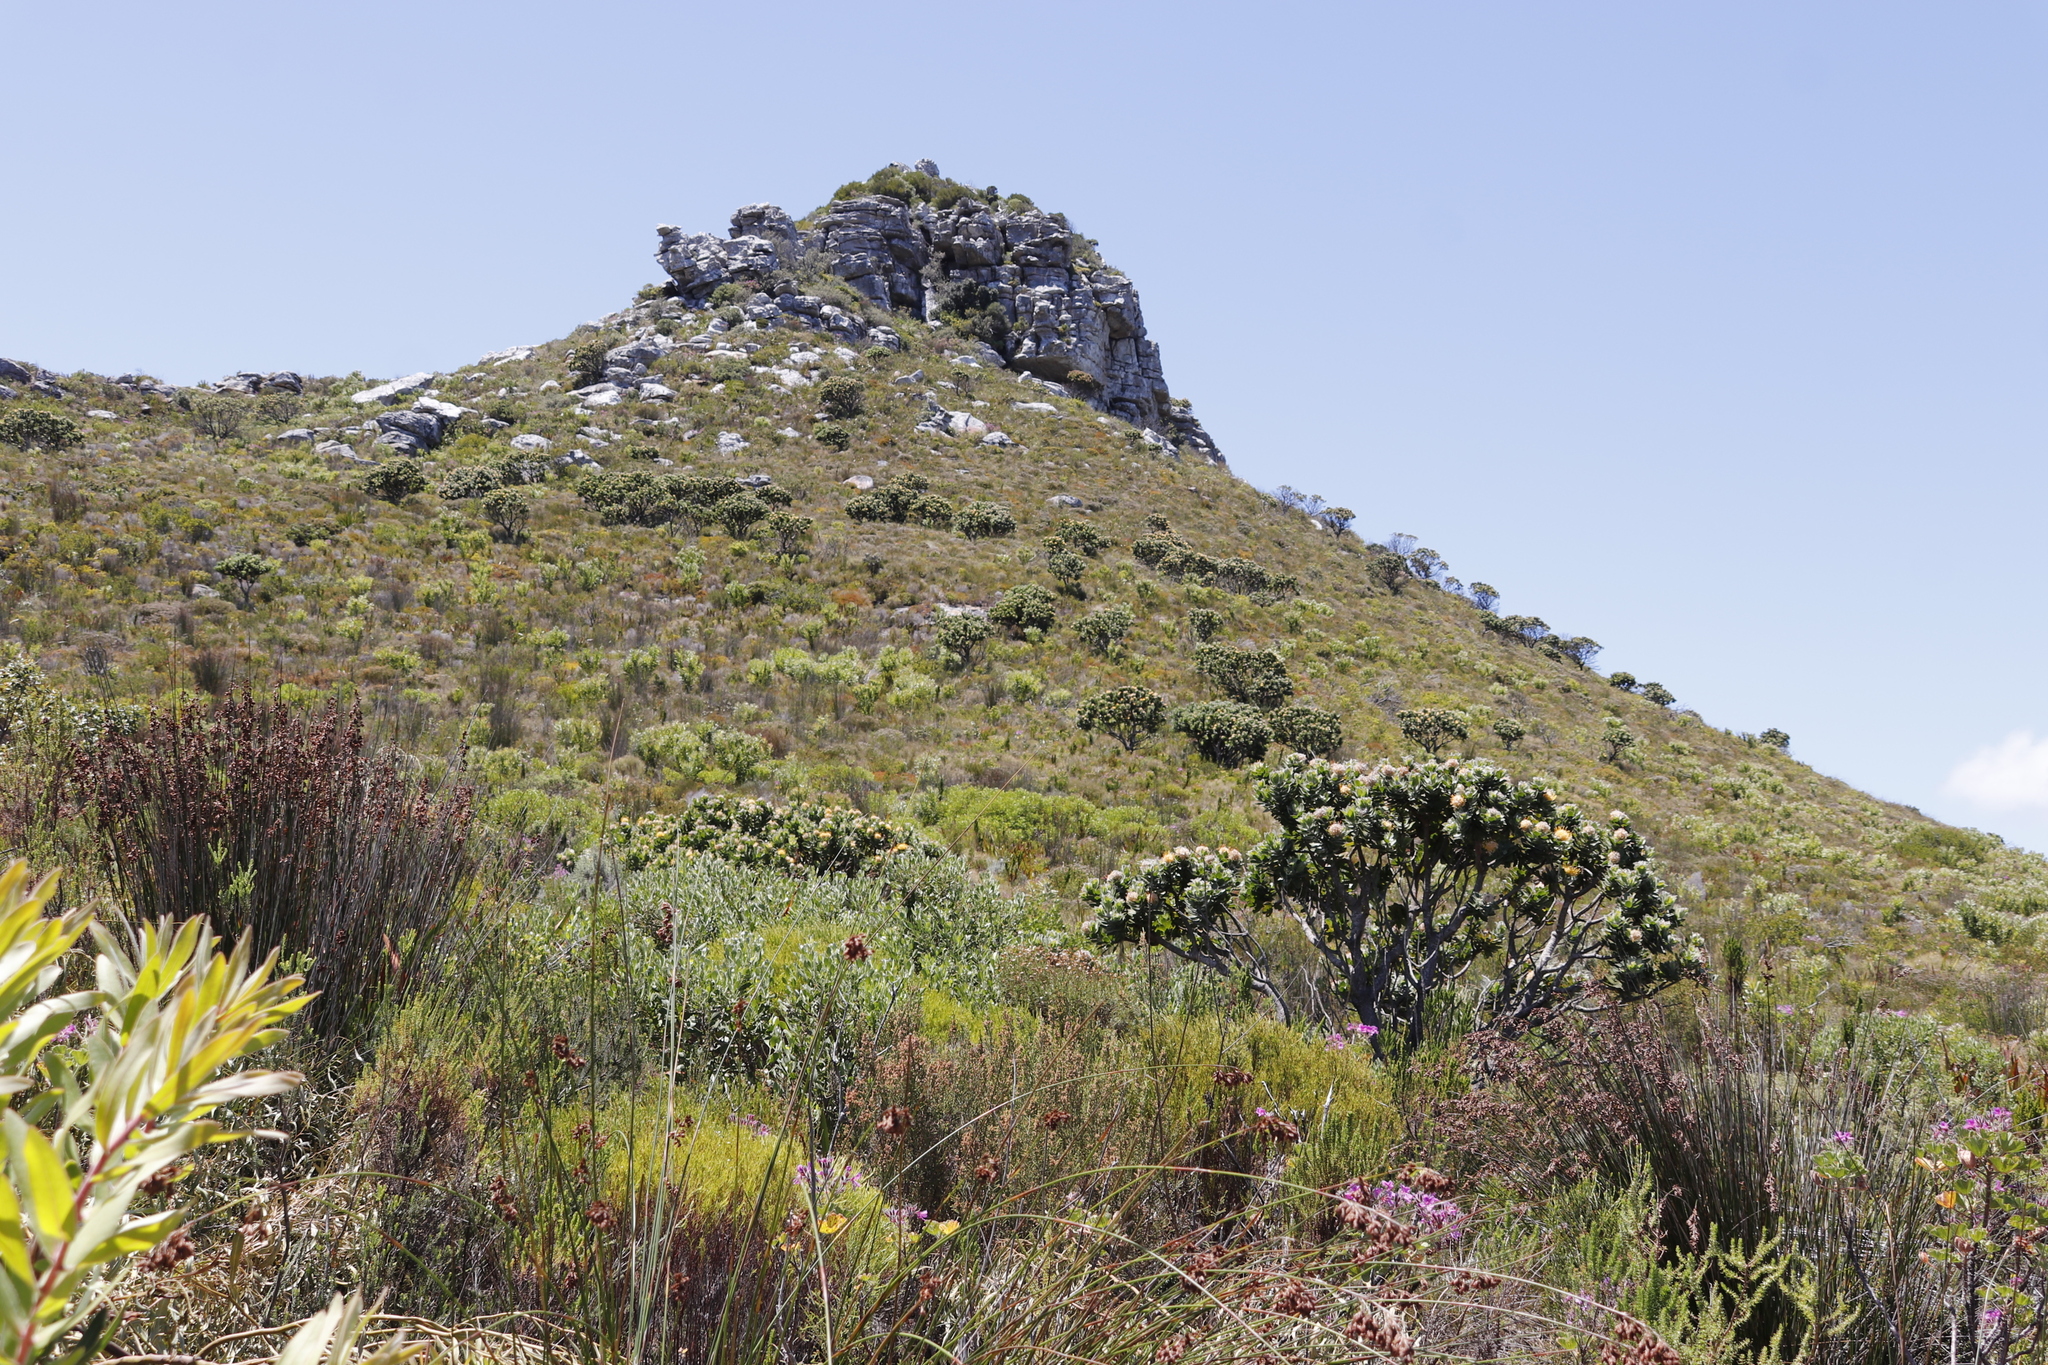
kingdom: Plantae
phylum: Tracheophyta
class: Magnoliopsida
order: Proteales
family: Proteaceae
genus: Leucospermum
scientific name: Leucospermum conocarpodendron
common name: Tree pincushion
